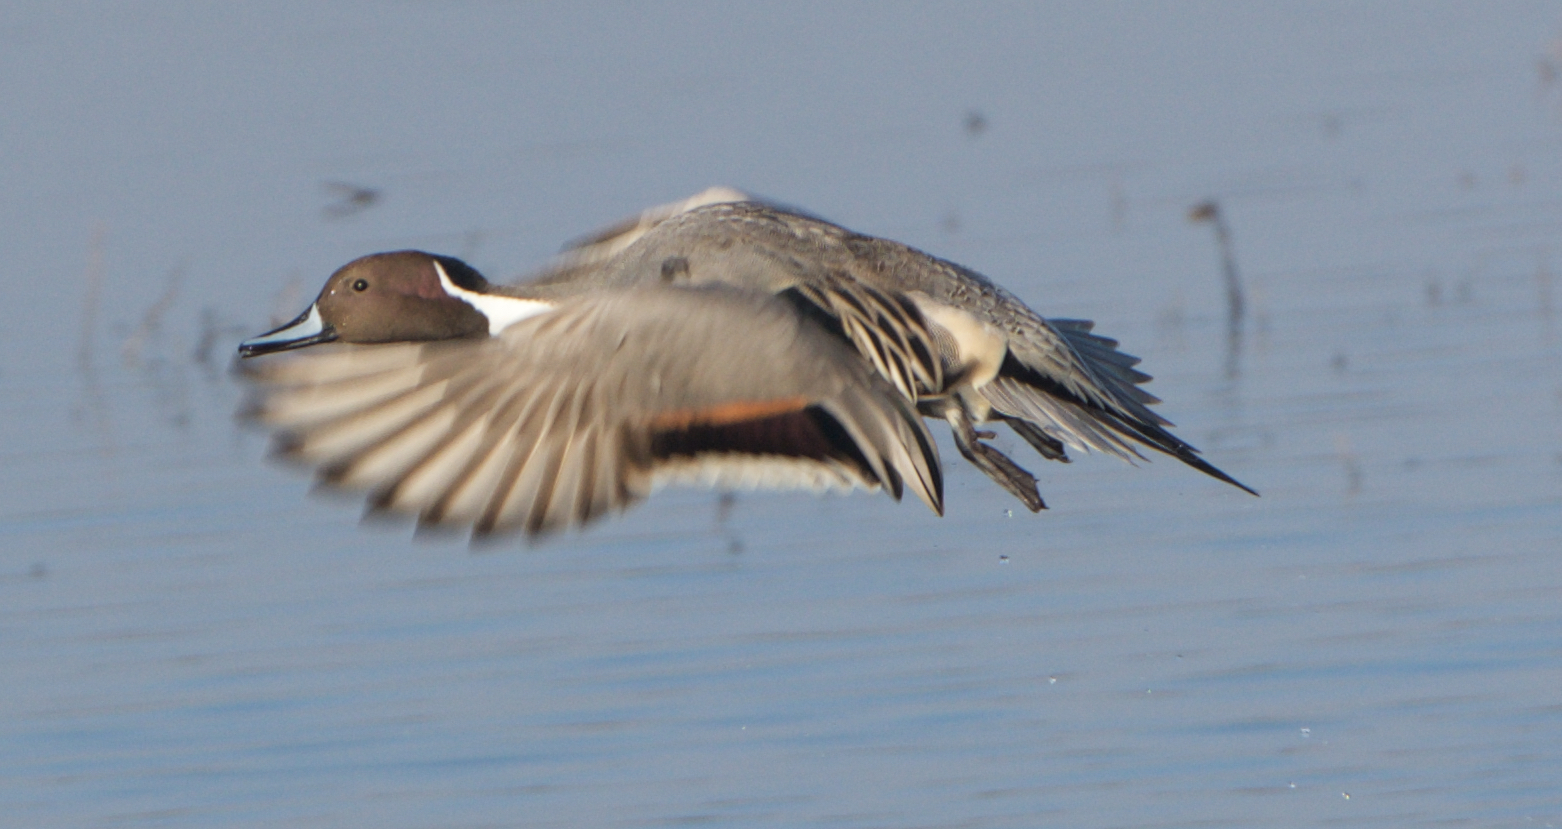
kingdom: Animalia
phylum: Chordata
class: Aves
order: Anseriformes
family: Anatidae
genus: Anas
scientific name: Anas acuta
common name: Northern pintail
